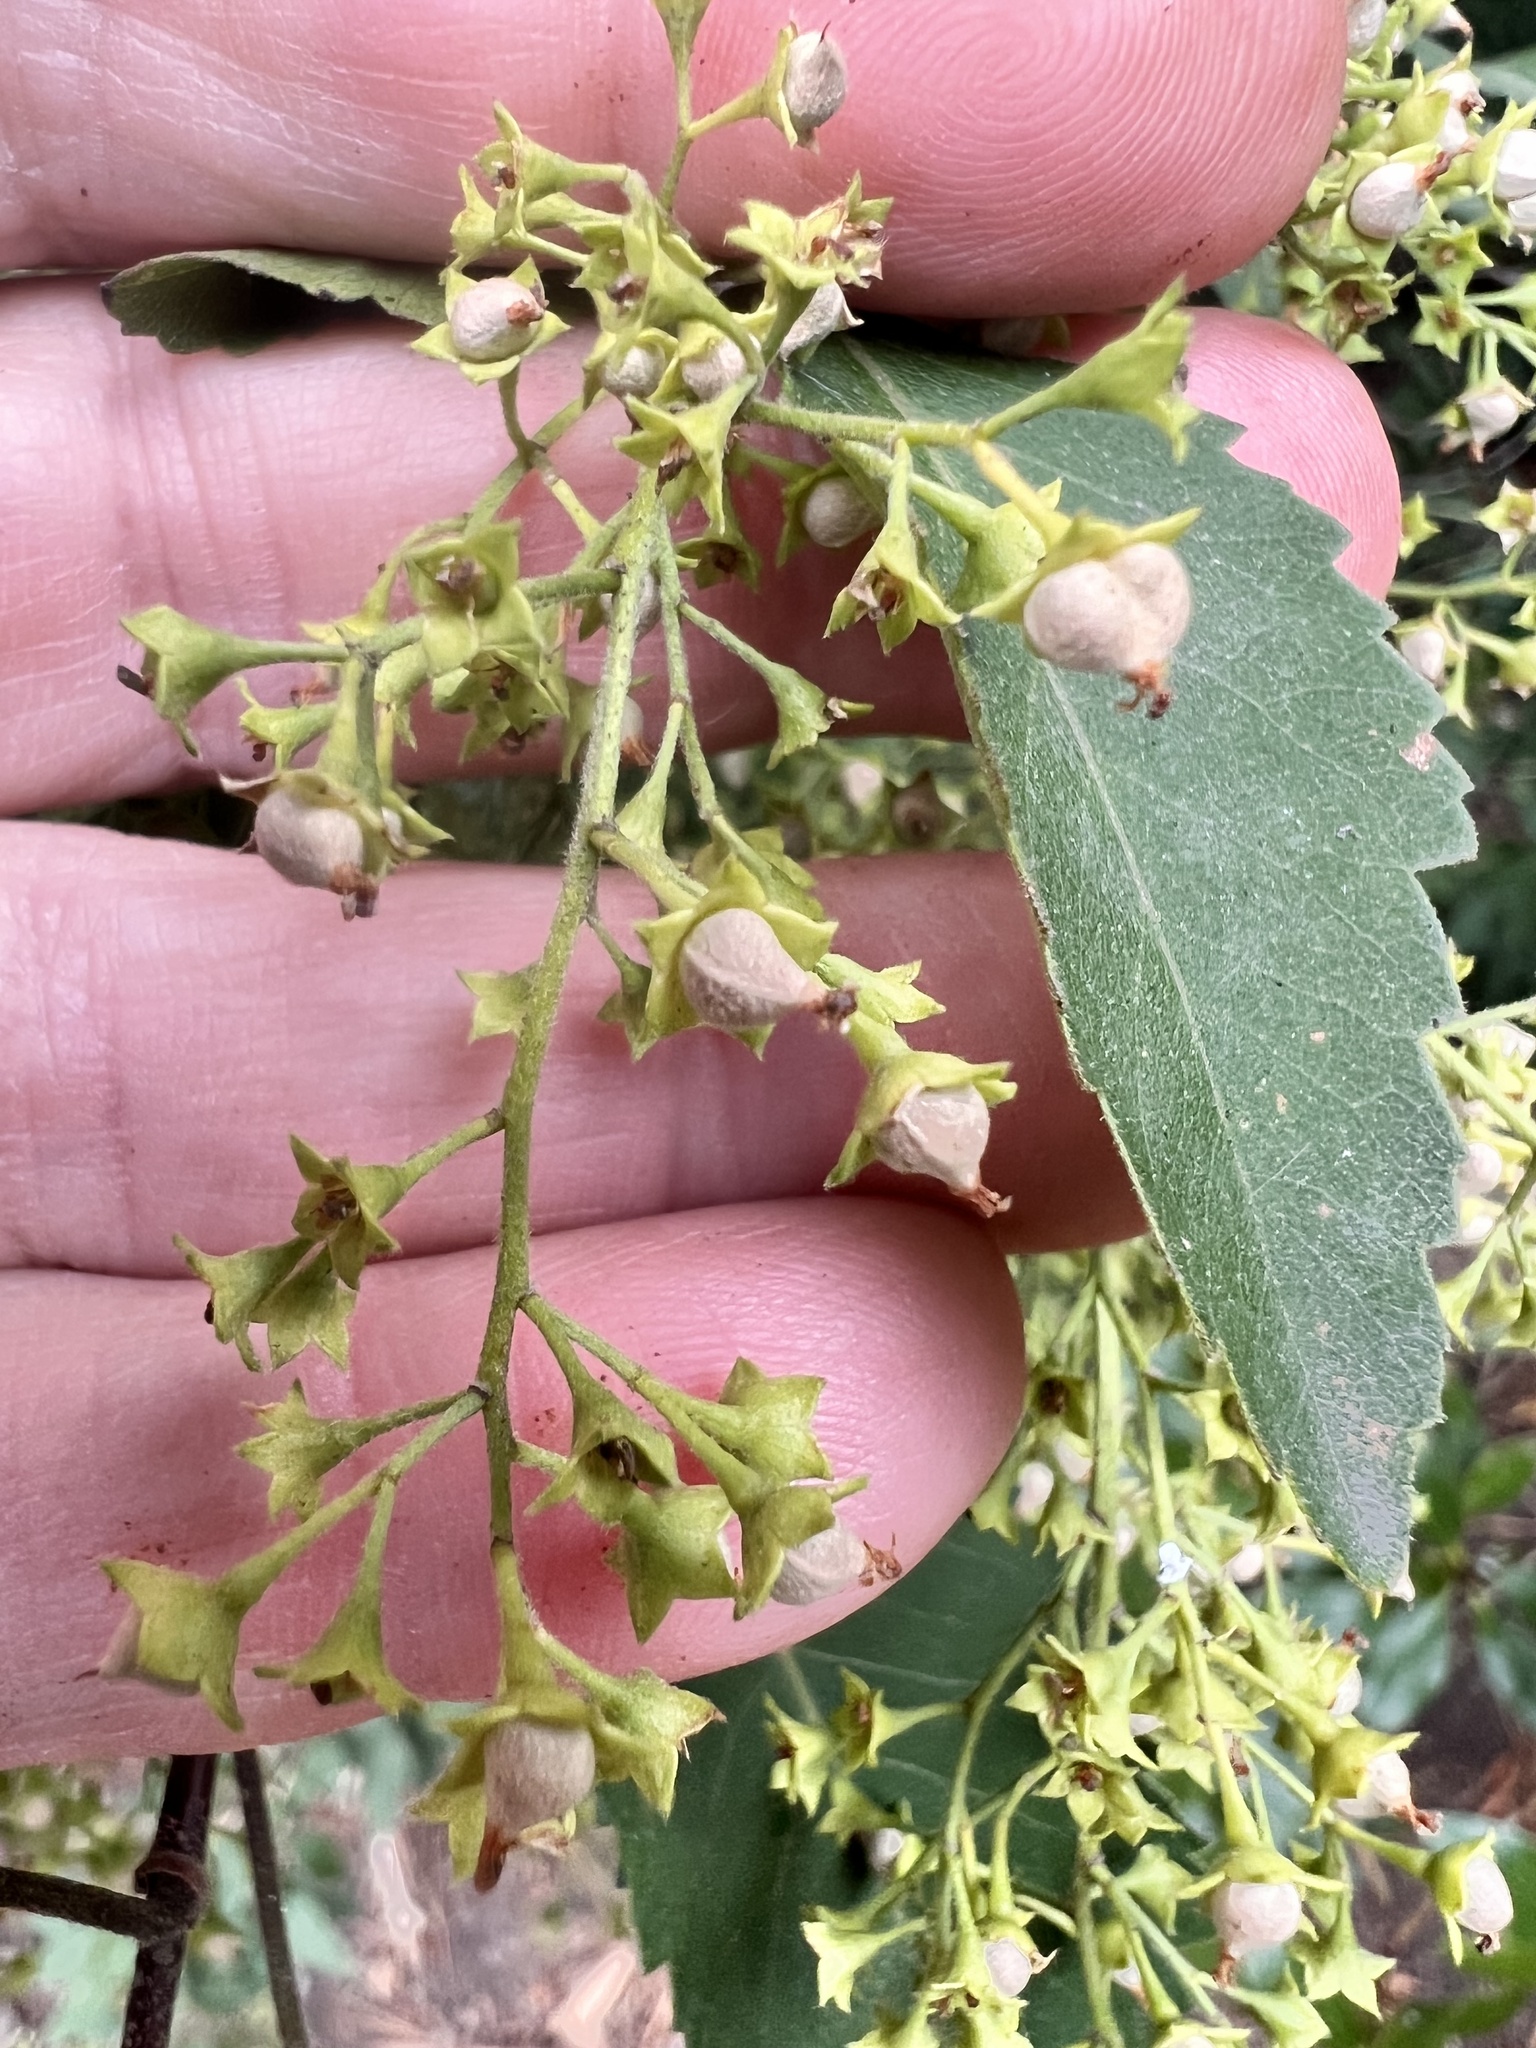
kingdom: Plantae
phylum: Tracheophyta
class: Magnoliopsida
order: Malvales
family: Malvaceae
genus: Plagianthus
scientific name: Plagianthus regius
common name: Manatu
